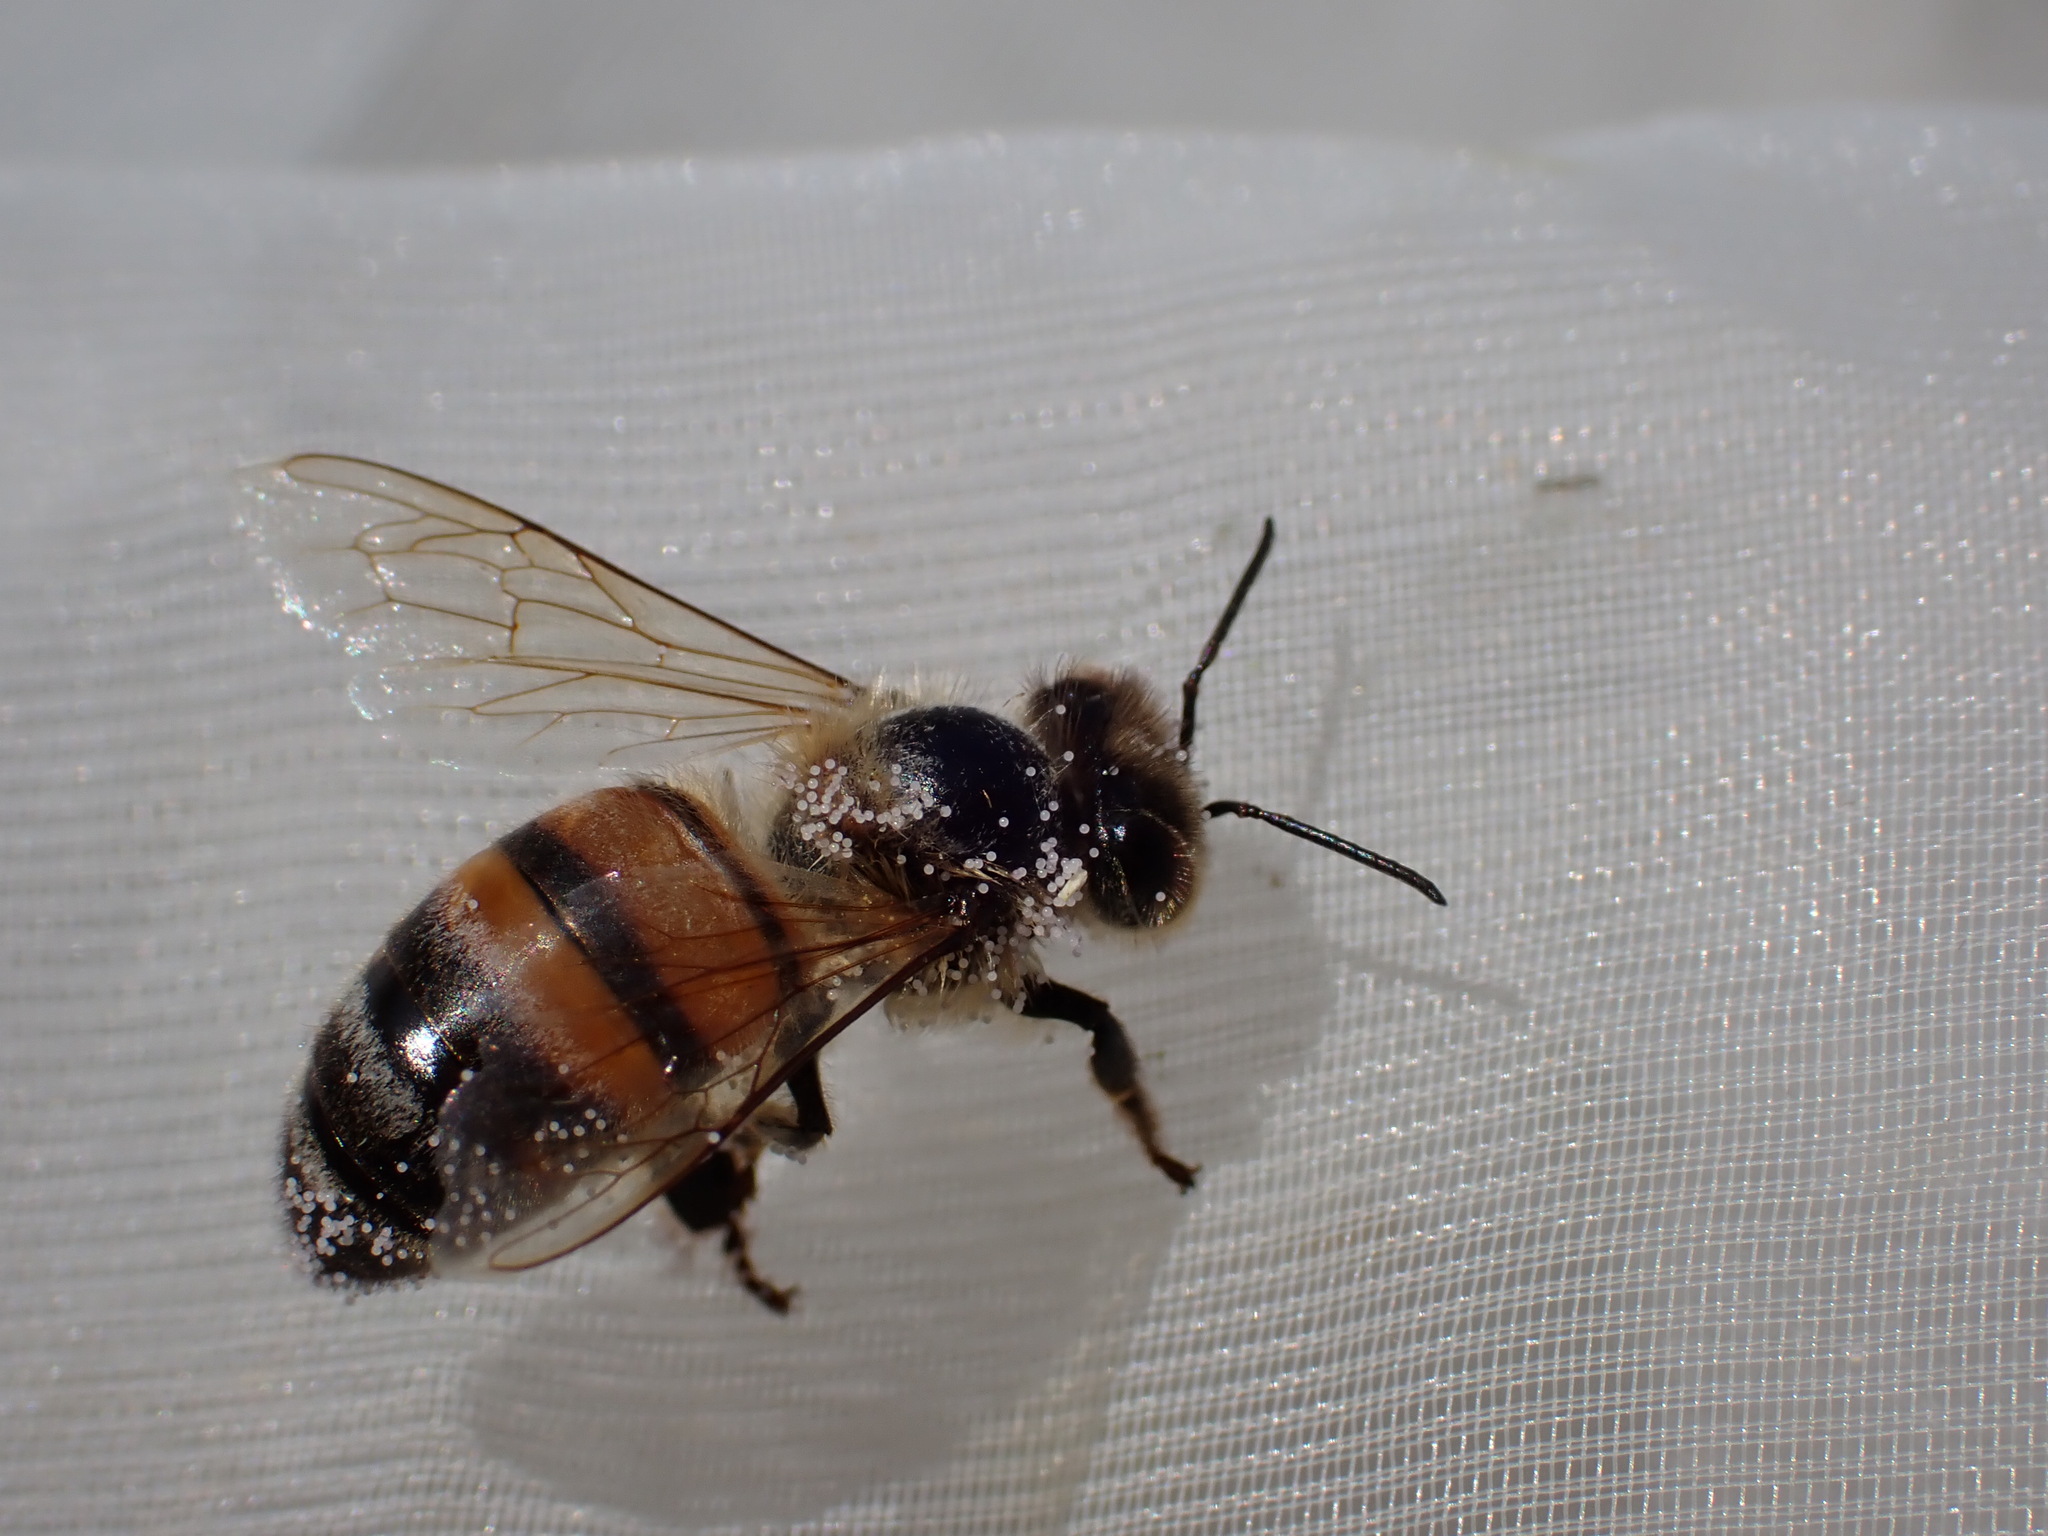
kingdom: Animalia
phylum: Arthropoda
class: Insecta
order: Hymenoptera
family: Apidae
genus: Apis
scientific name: Apis mellifera
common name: Honey bee
